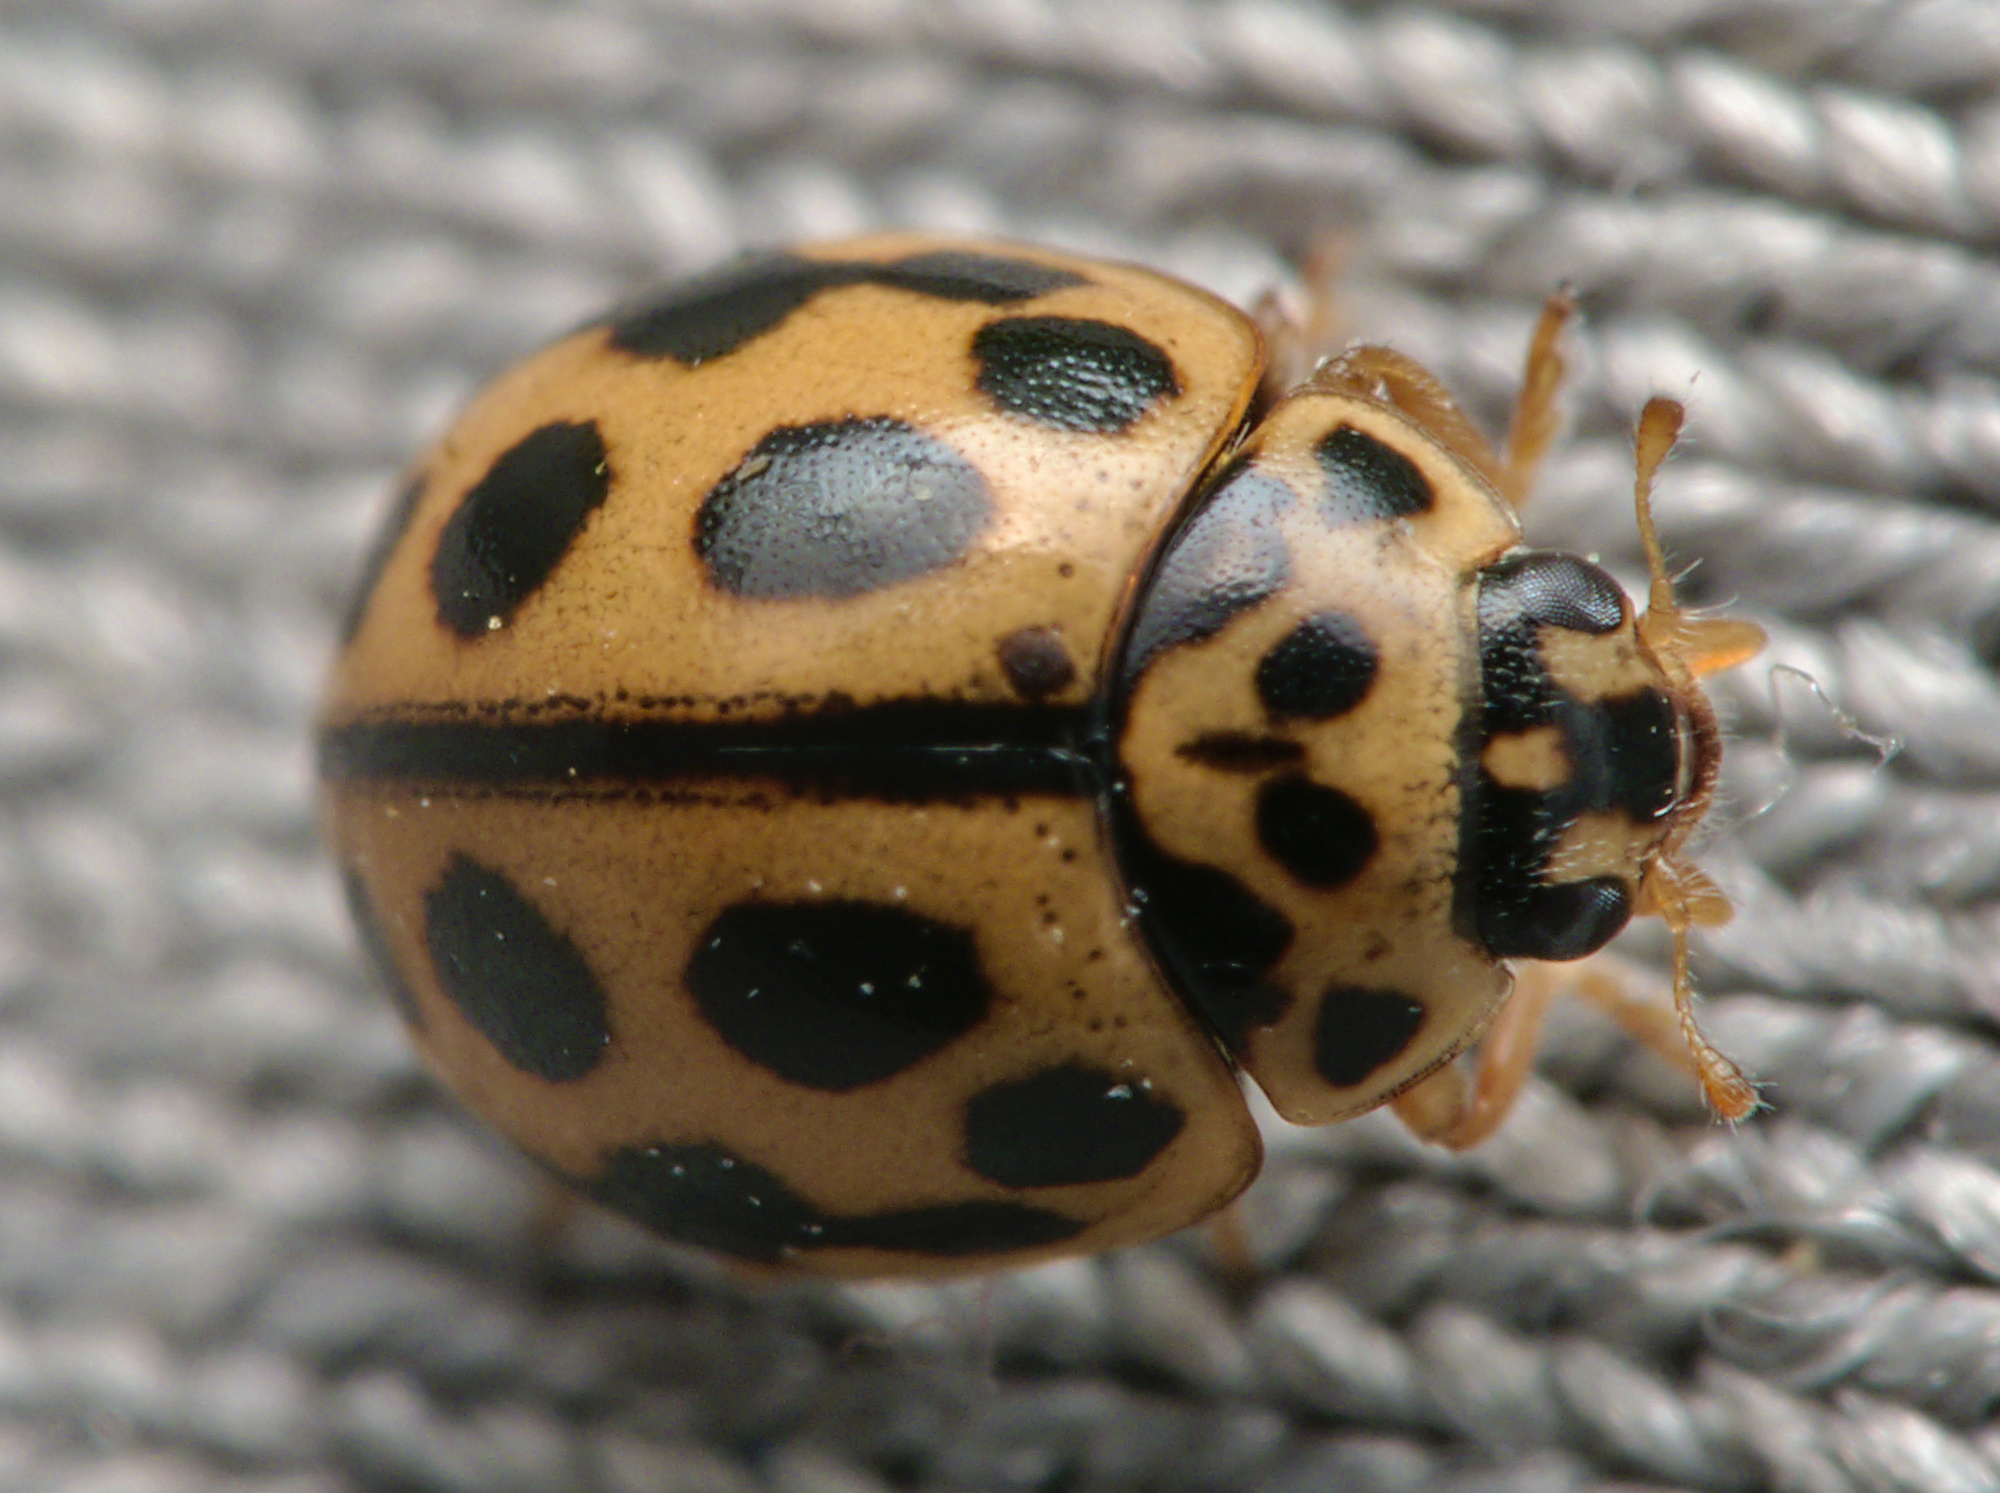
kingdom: Animalia
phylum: Arthropoda
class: Insecta
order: Coleoptera
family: Coccinellidae
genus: Tytthaspis
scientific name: Tytthaspis sedecimpunctata
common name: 16-spot ladybird
